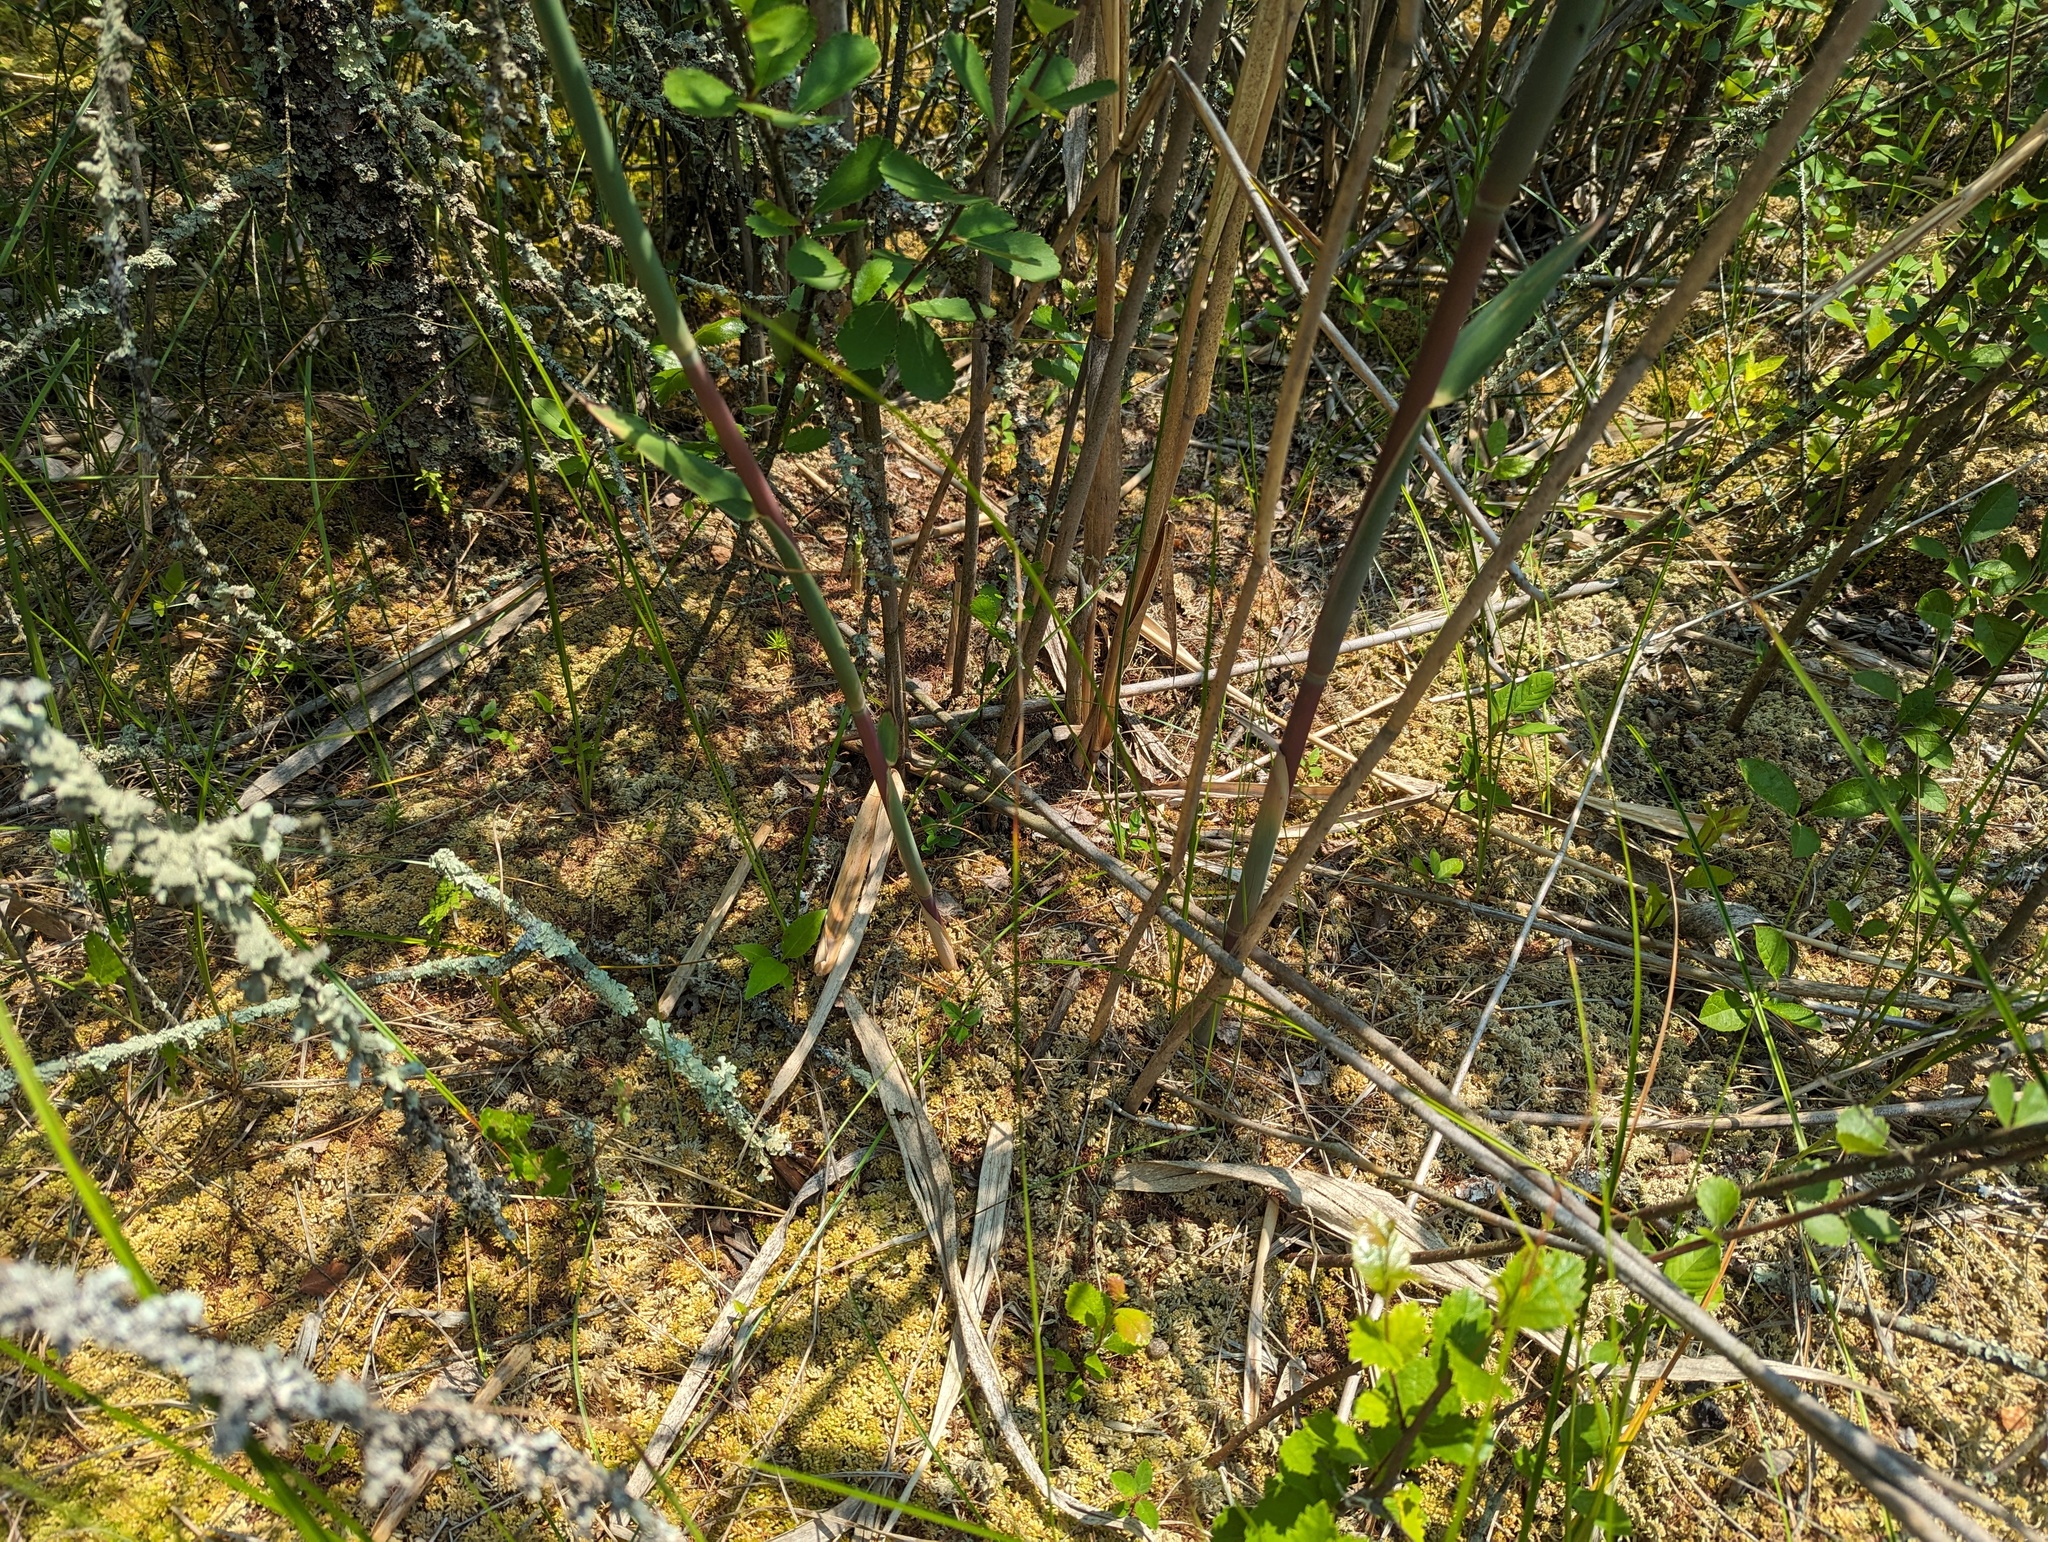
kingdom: Plantae
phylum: Tracheophyta
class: Liliopsida
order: Poales
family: Poaceae
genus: Phragmites
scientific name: Phragmites australis
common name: Common reed
